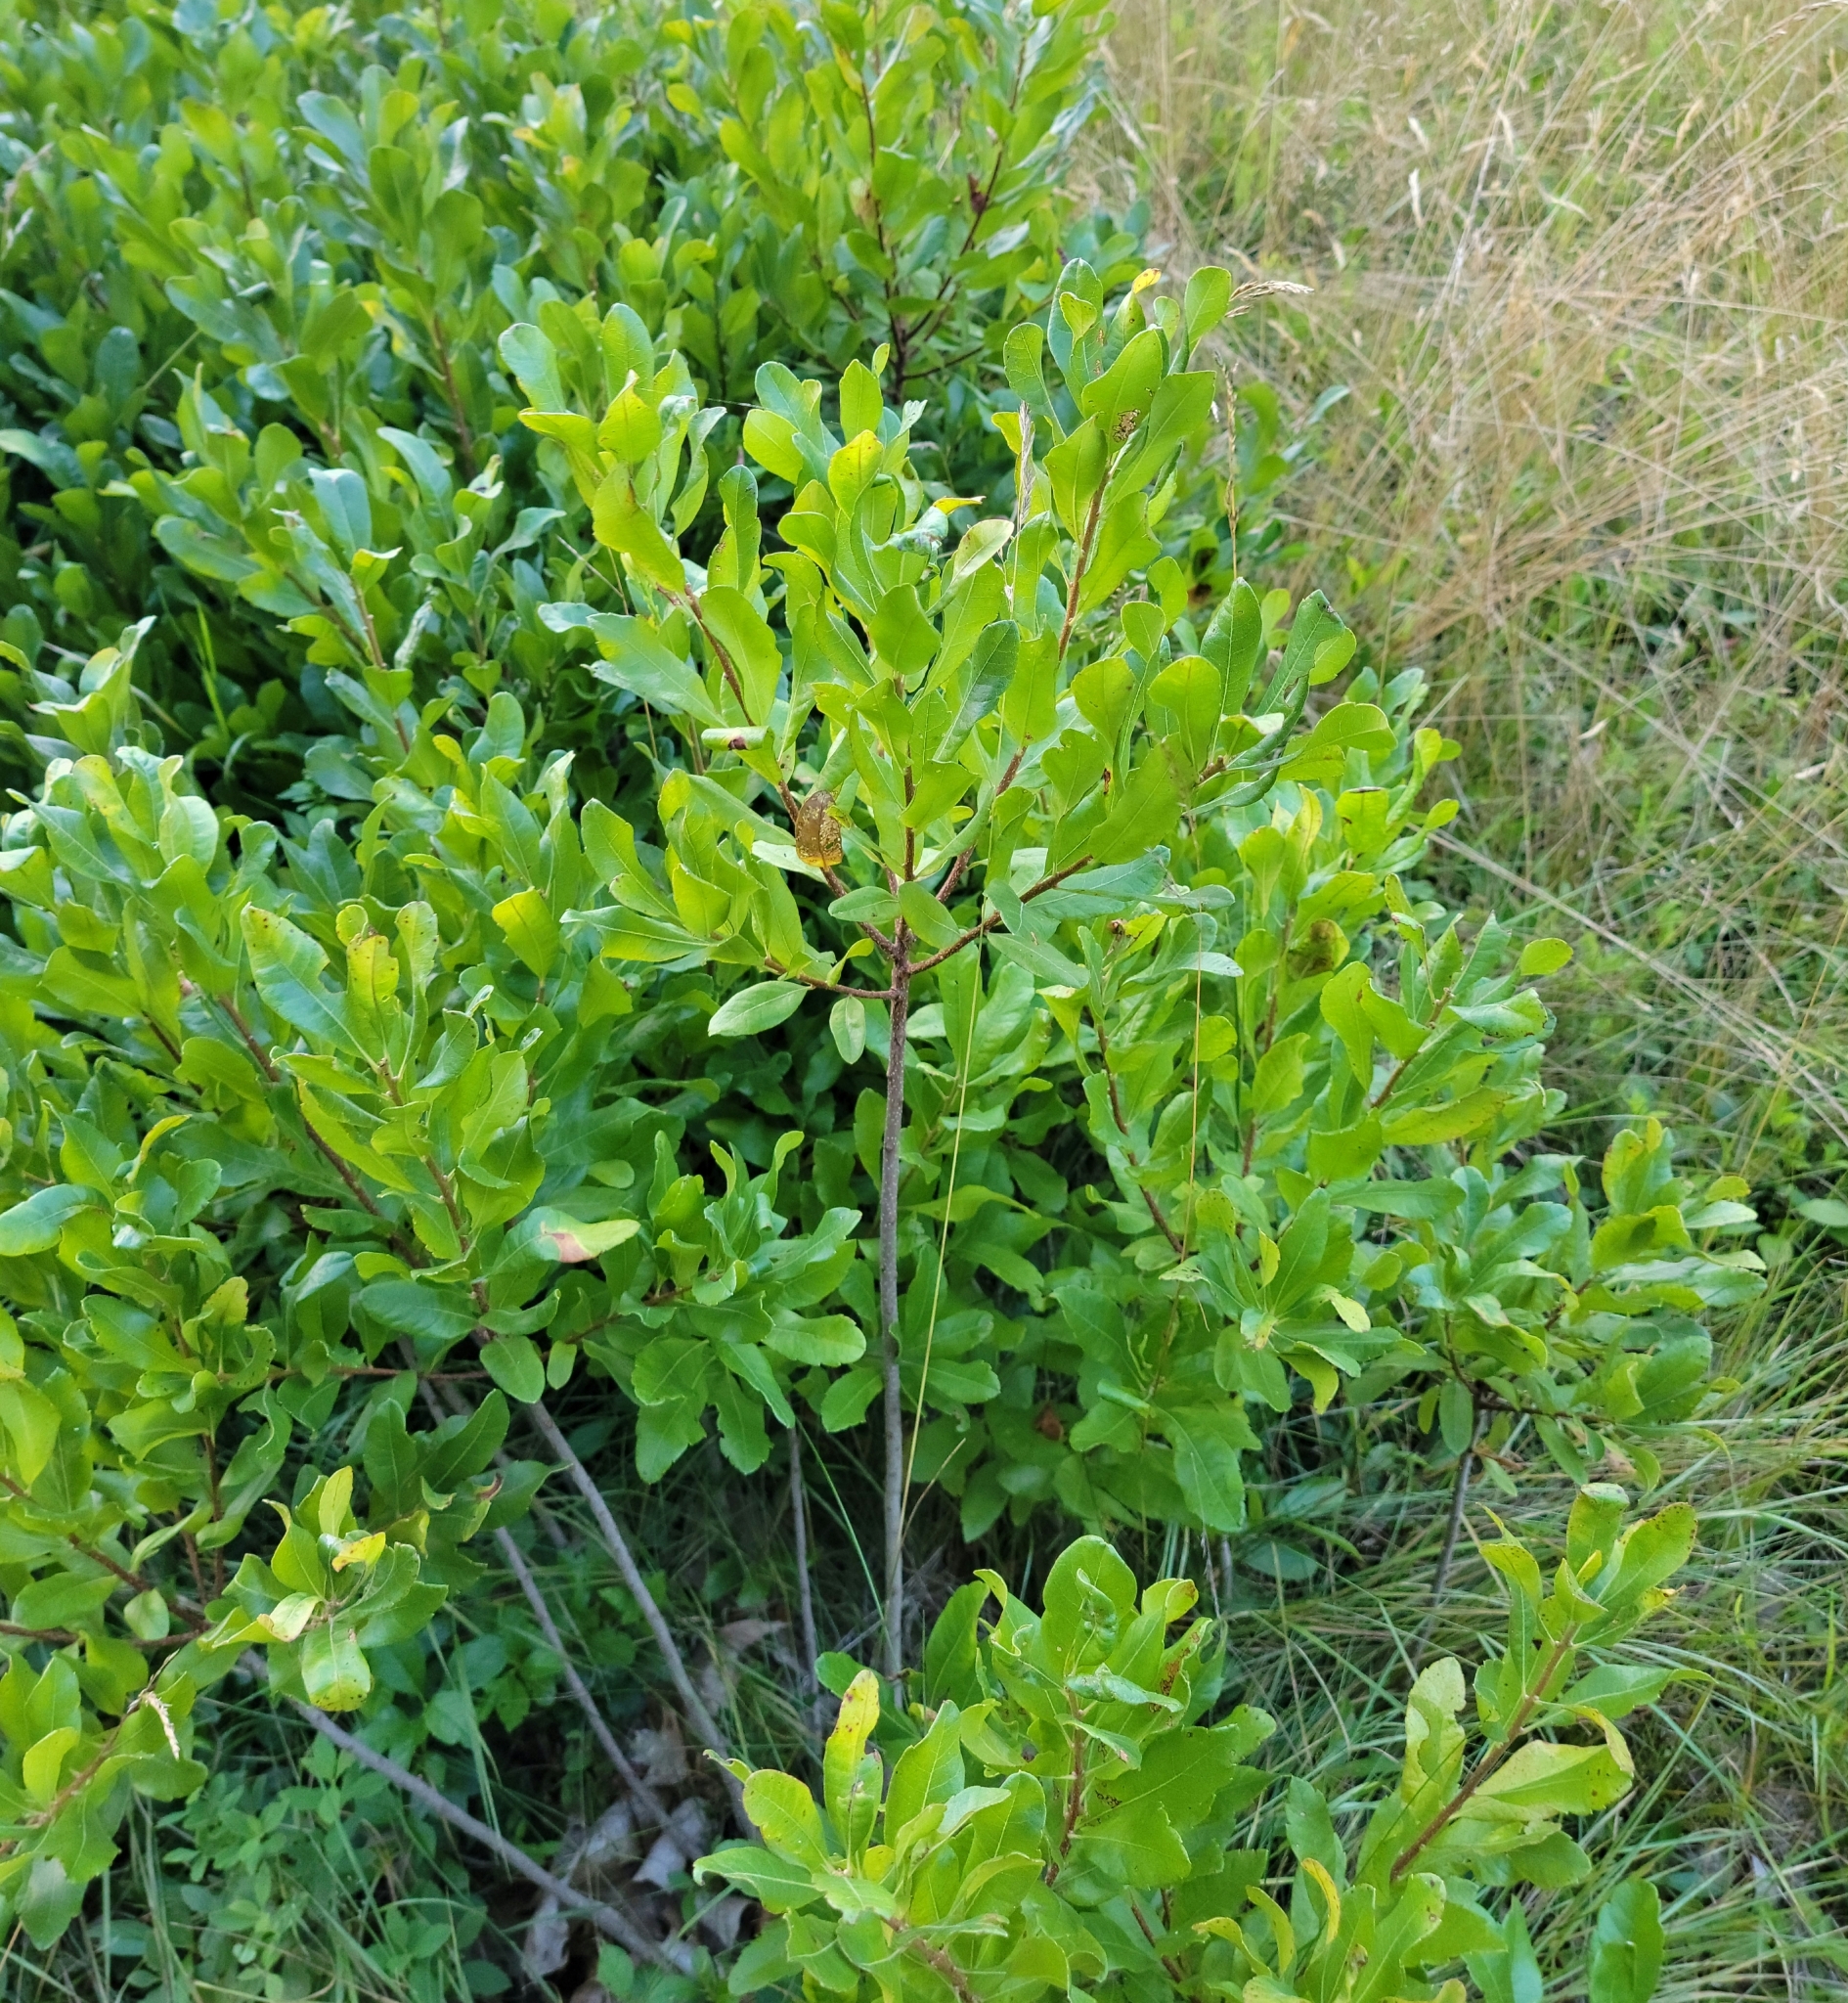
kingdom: Plantae
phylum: Tracheophyta
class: Magnoliopsida
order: Fagales
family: Myricaceae
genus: Morella
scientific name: Morella pensylvanica
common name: Northern bayberry
